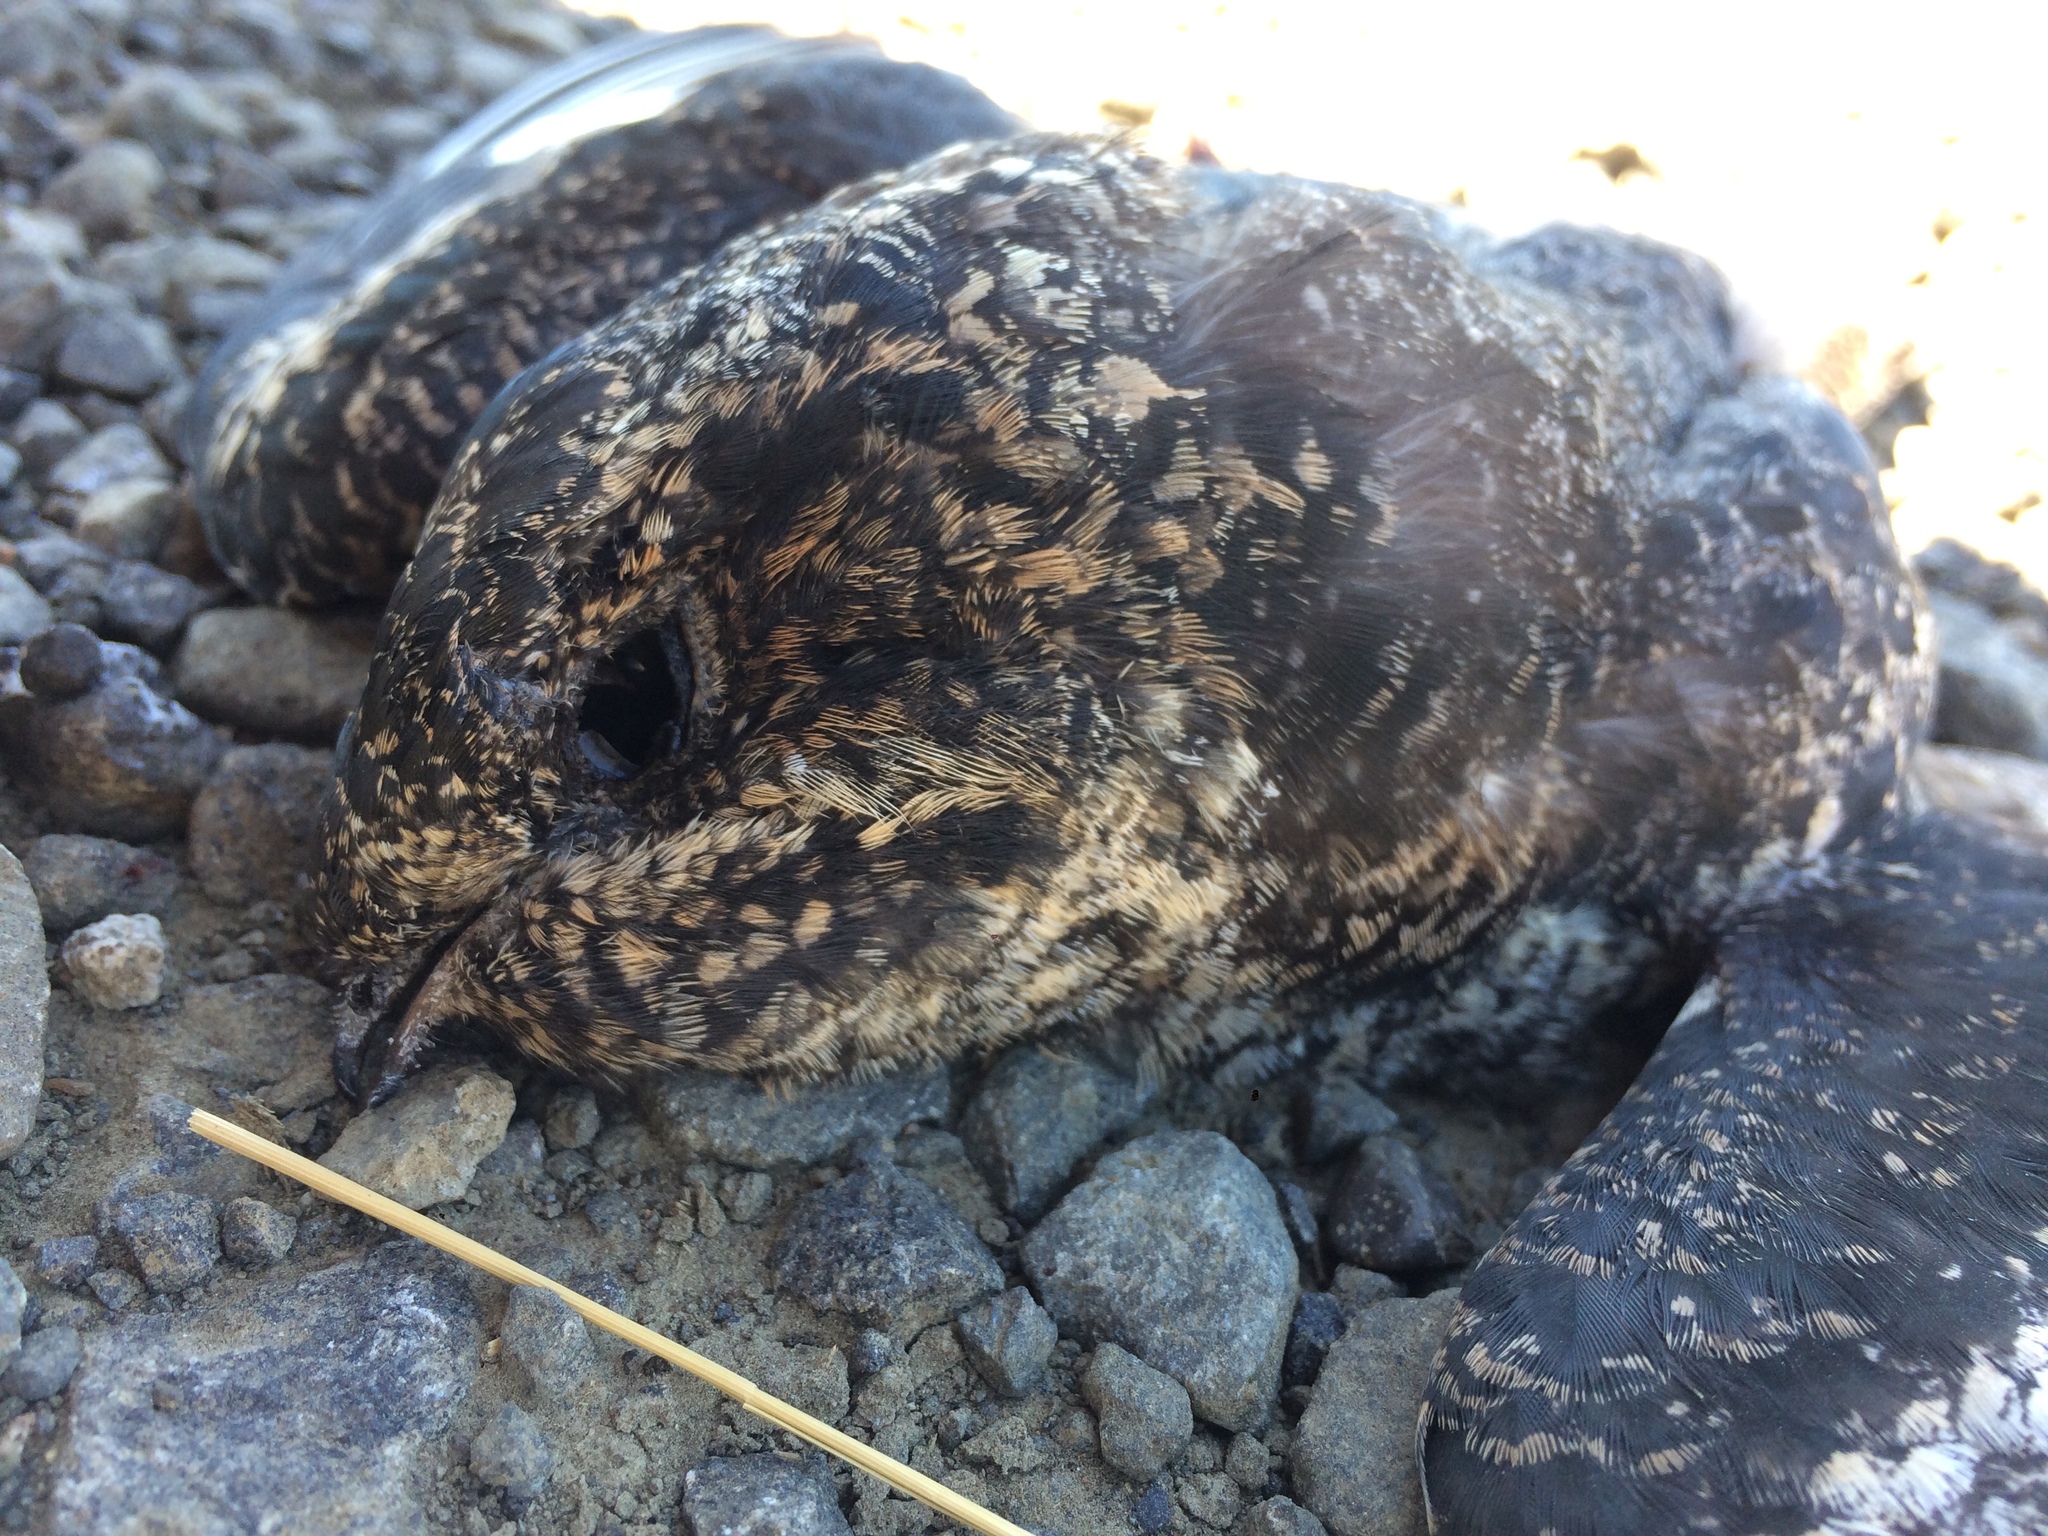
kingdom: Animalia
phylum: Chordata
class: Aves
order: Caprimulgiformes
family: Caprimulgidae
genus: Chordeiles
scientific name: Chordeiles minor
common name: Common nighthawk
